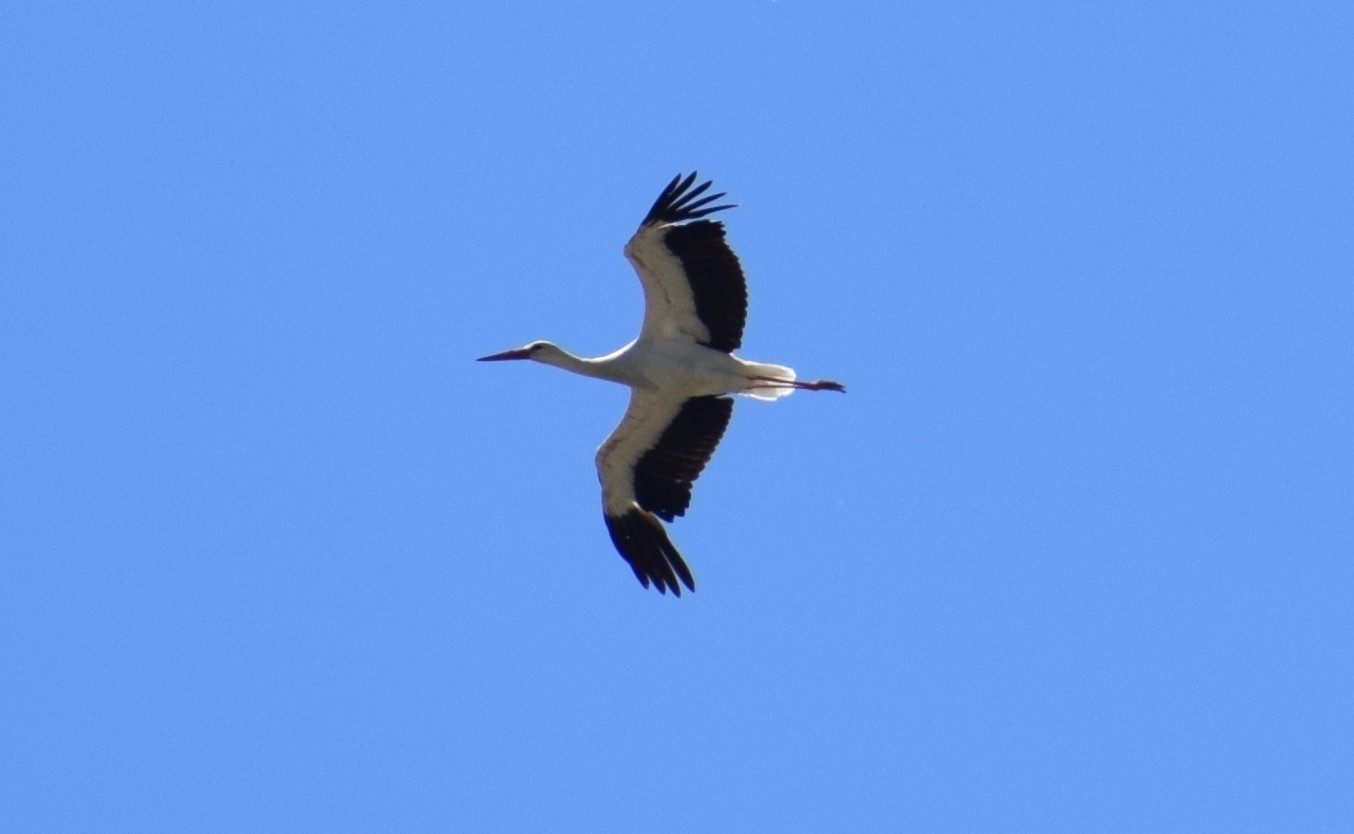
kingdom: Animalia
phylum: Chordata
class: Aves
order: Ciconiiformes
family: Ciconiidae
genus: Ciconia
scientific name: Ciconia ciconia
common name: White stork
